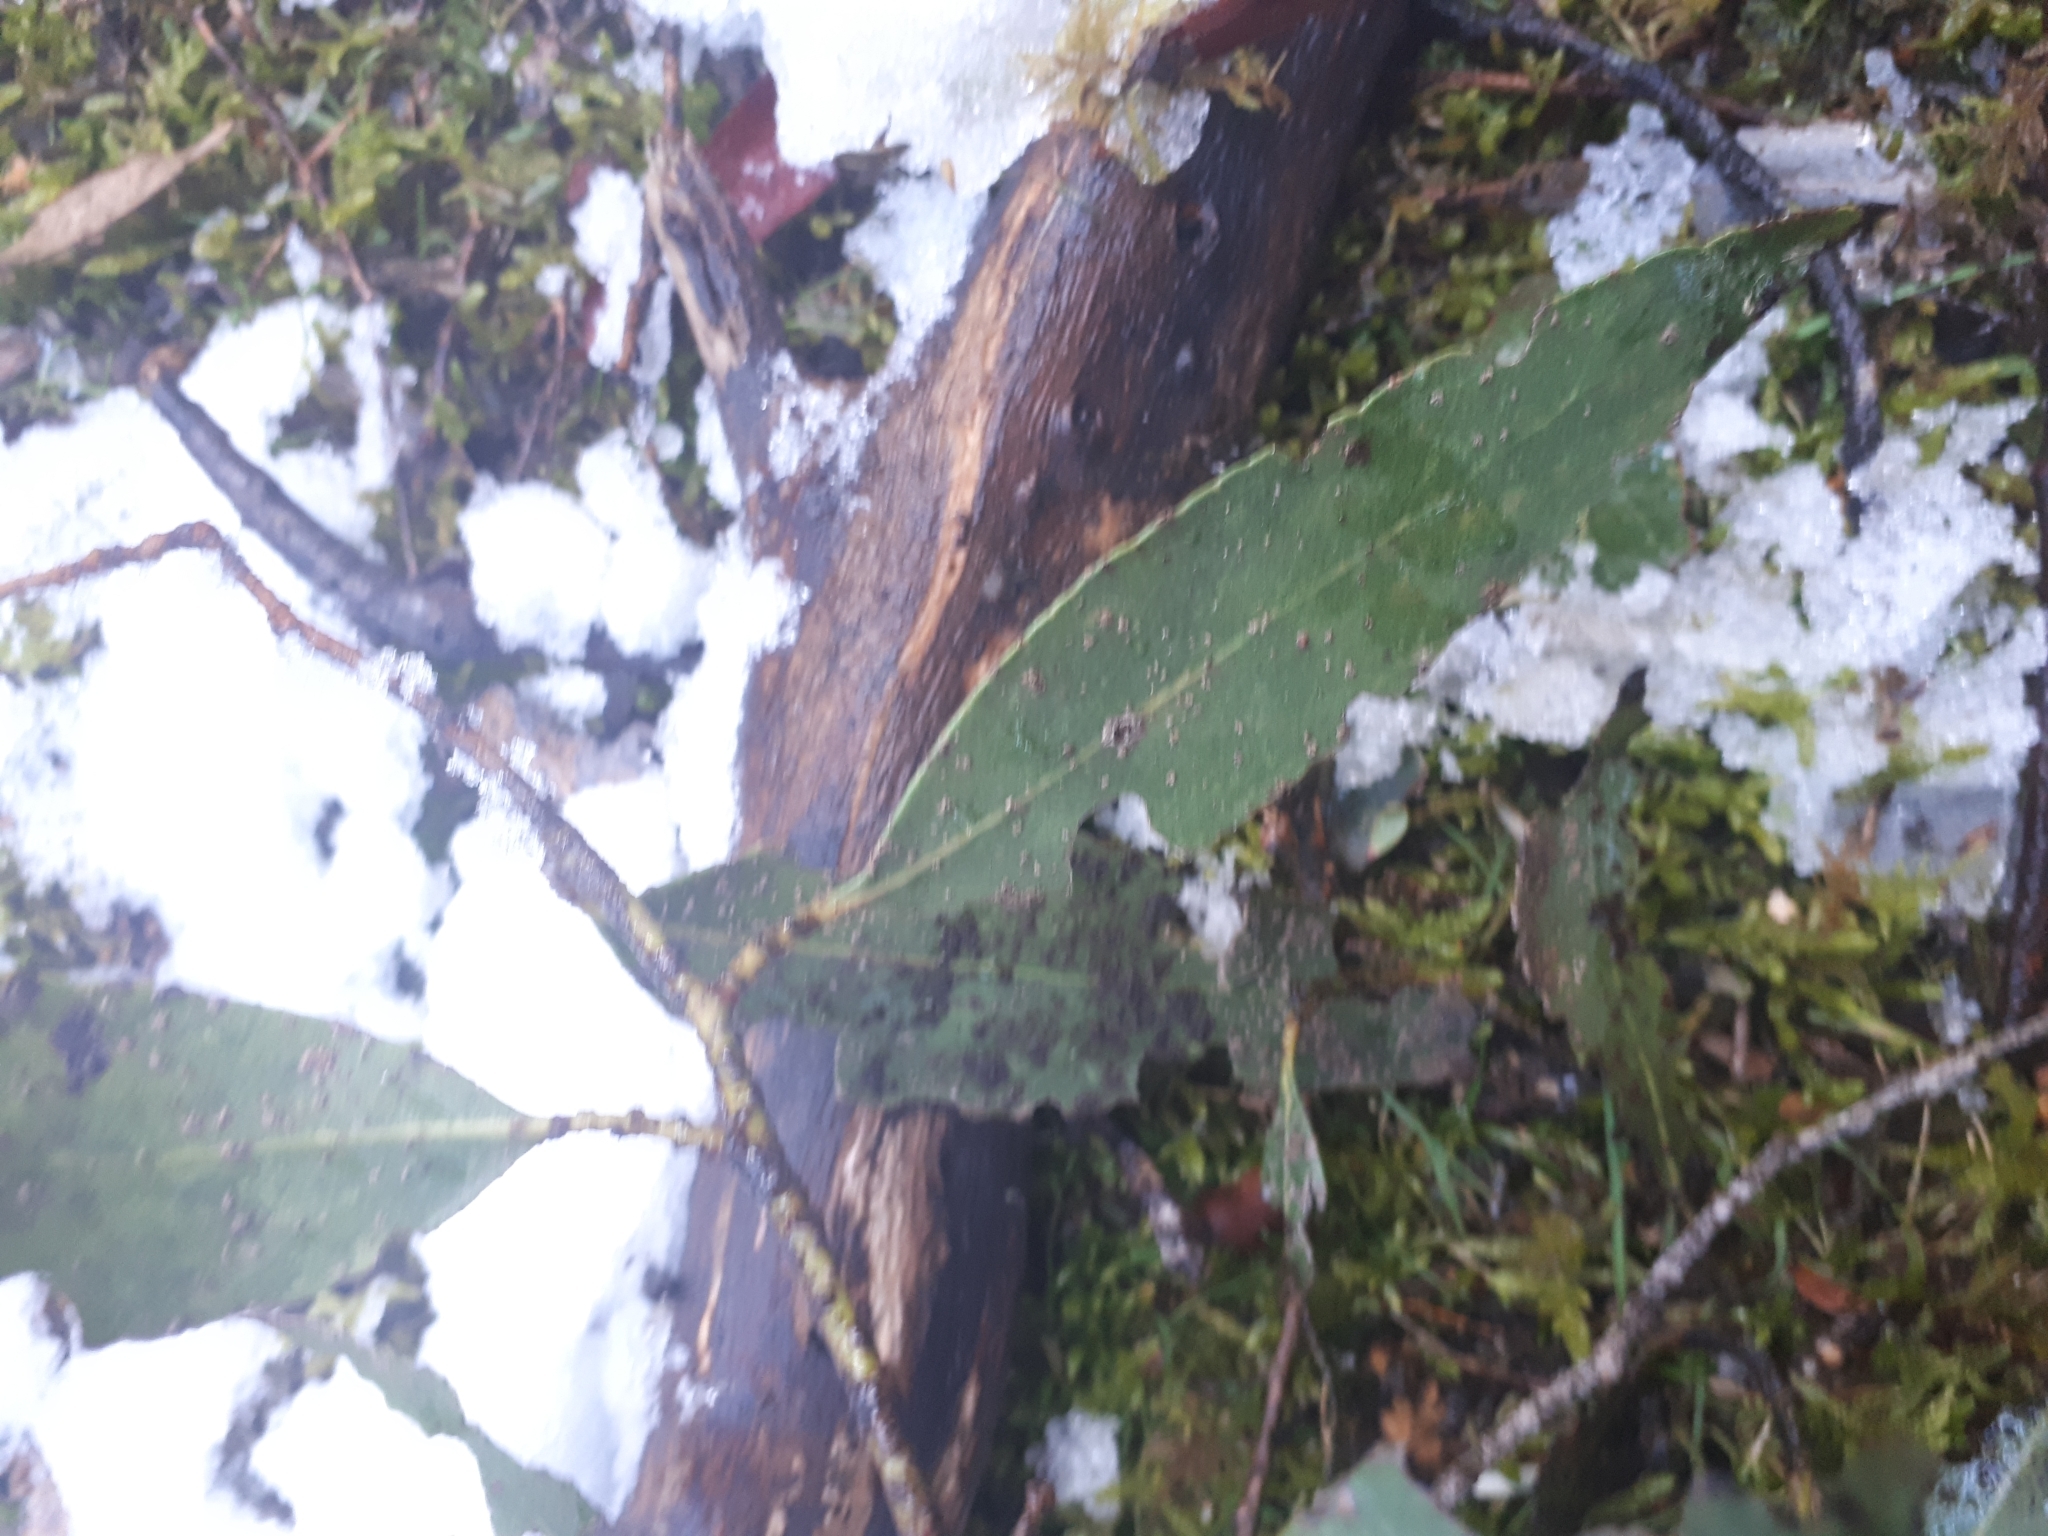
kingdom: Plantae
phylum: Tracheophyta
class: Magnoliopsida
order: Myrtales
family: Myrtaceae
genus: Eucalyptus
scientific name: Eucalyptus johnstonii
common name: Johnston's gum
